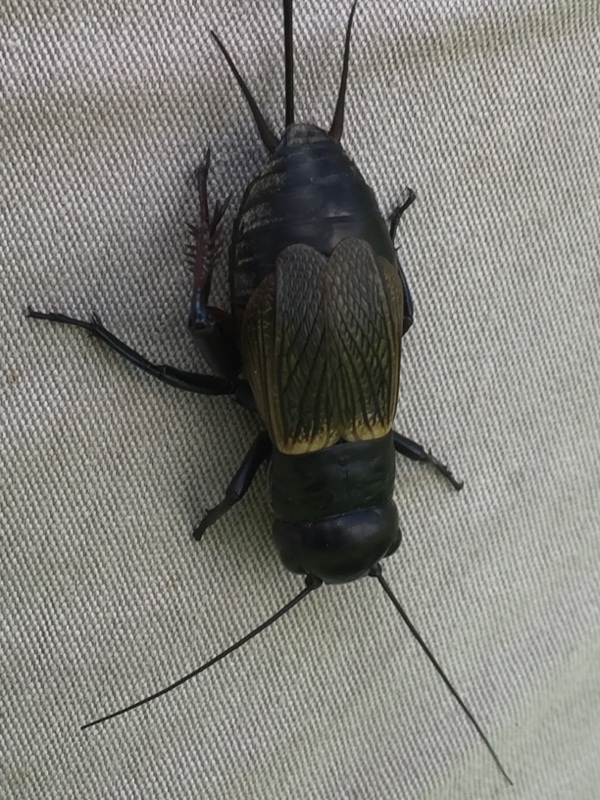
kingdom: Animalia
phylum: Arthropoda
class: Insecta
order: Orthoptera
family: Gryllidae
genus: Gryllus
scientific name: Gryllus campestris
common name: Field cricket
